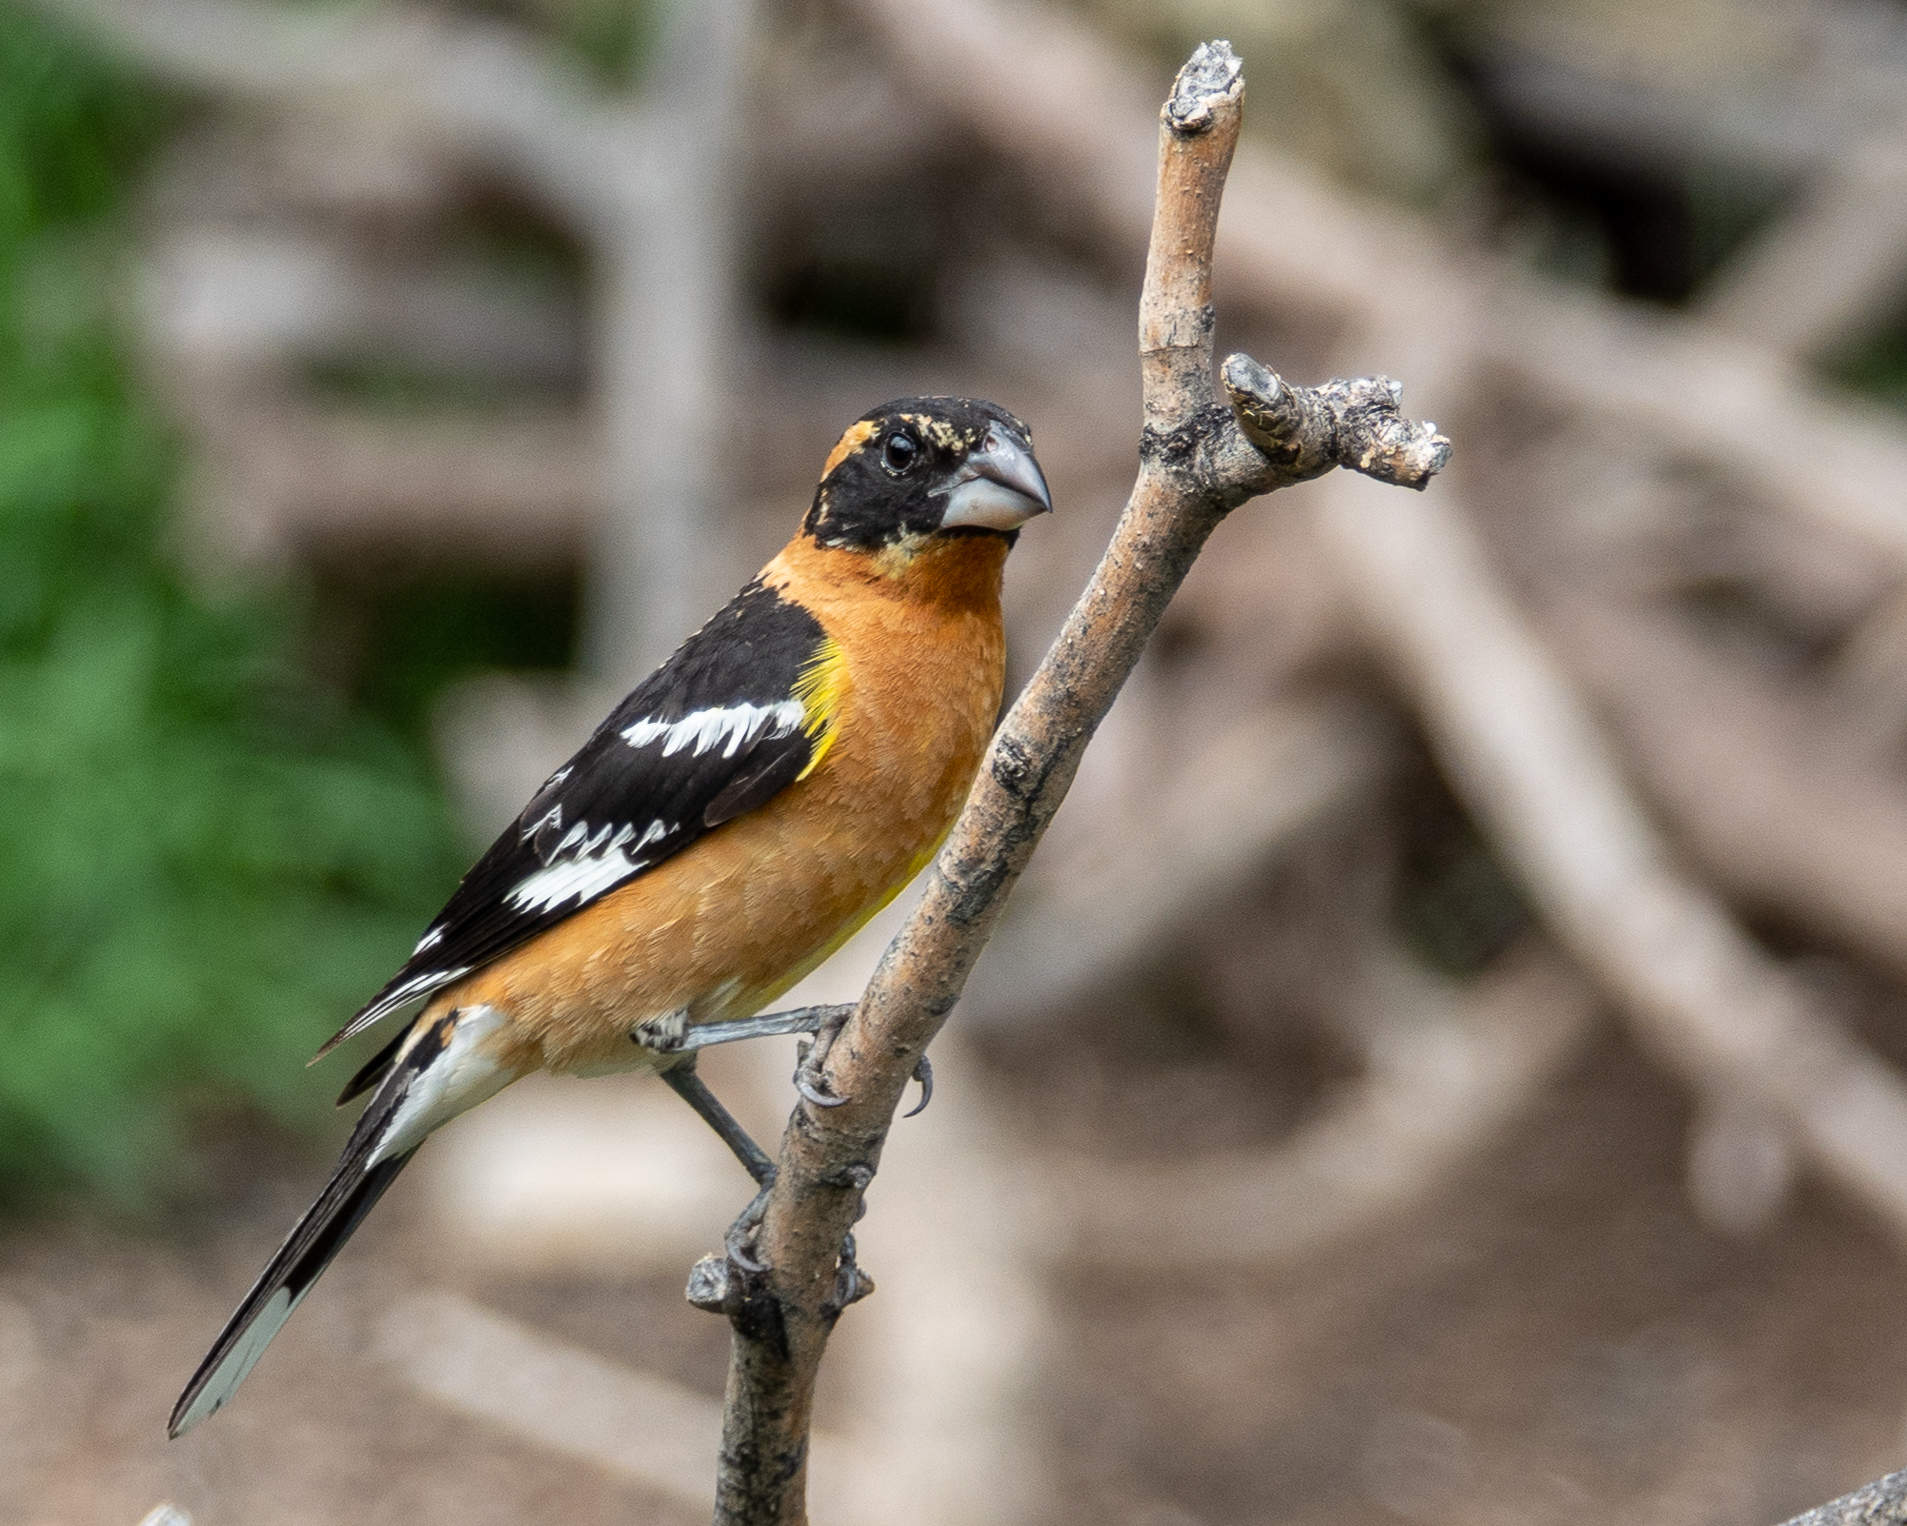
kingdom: Animalia
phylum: Chordata
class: Aves
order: Passeriformes
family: Cardinalidae
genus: Pheucticus
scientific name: Pheucticus melanocephalus
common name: Black-headed grosbeak
